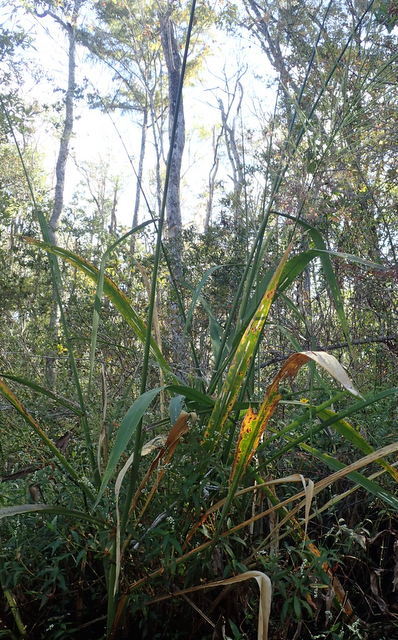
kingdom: Plantae
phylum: Tracheophyta
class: Liliopsida
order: Poales
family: Poaceae
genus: Zizania
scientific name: Zizania aquatica
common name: Annual wildrice
